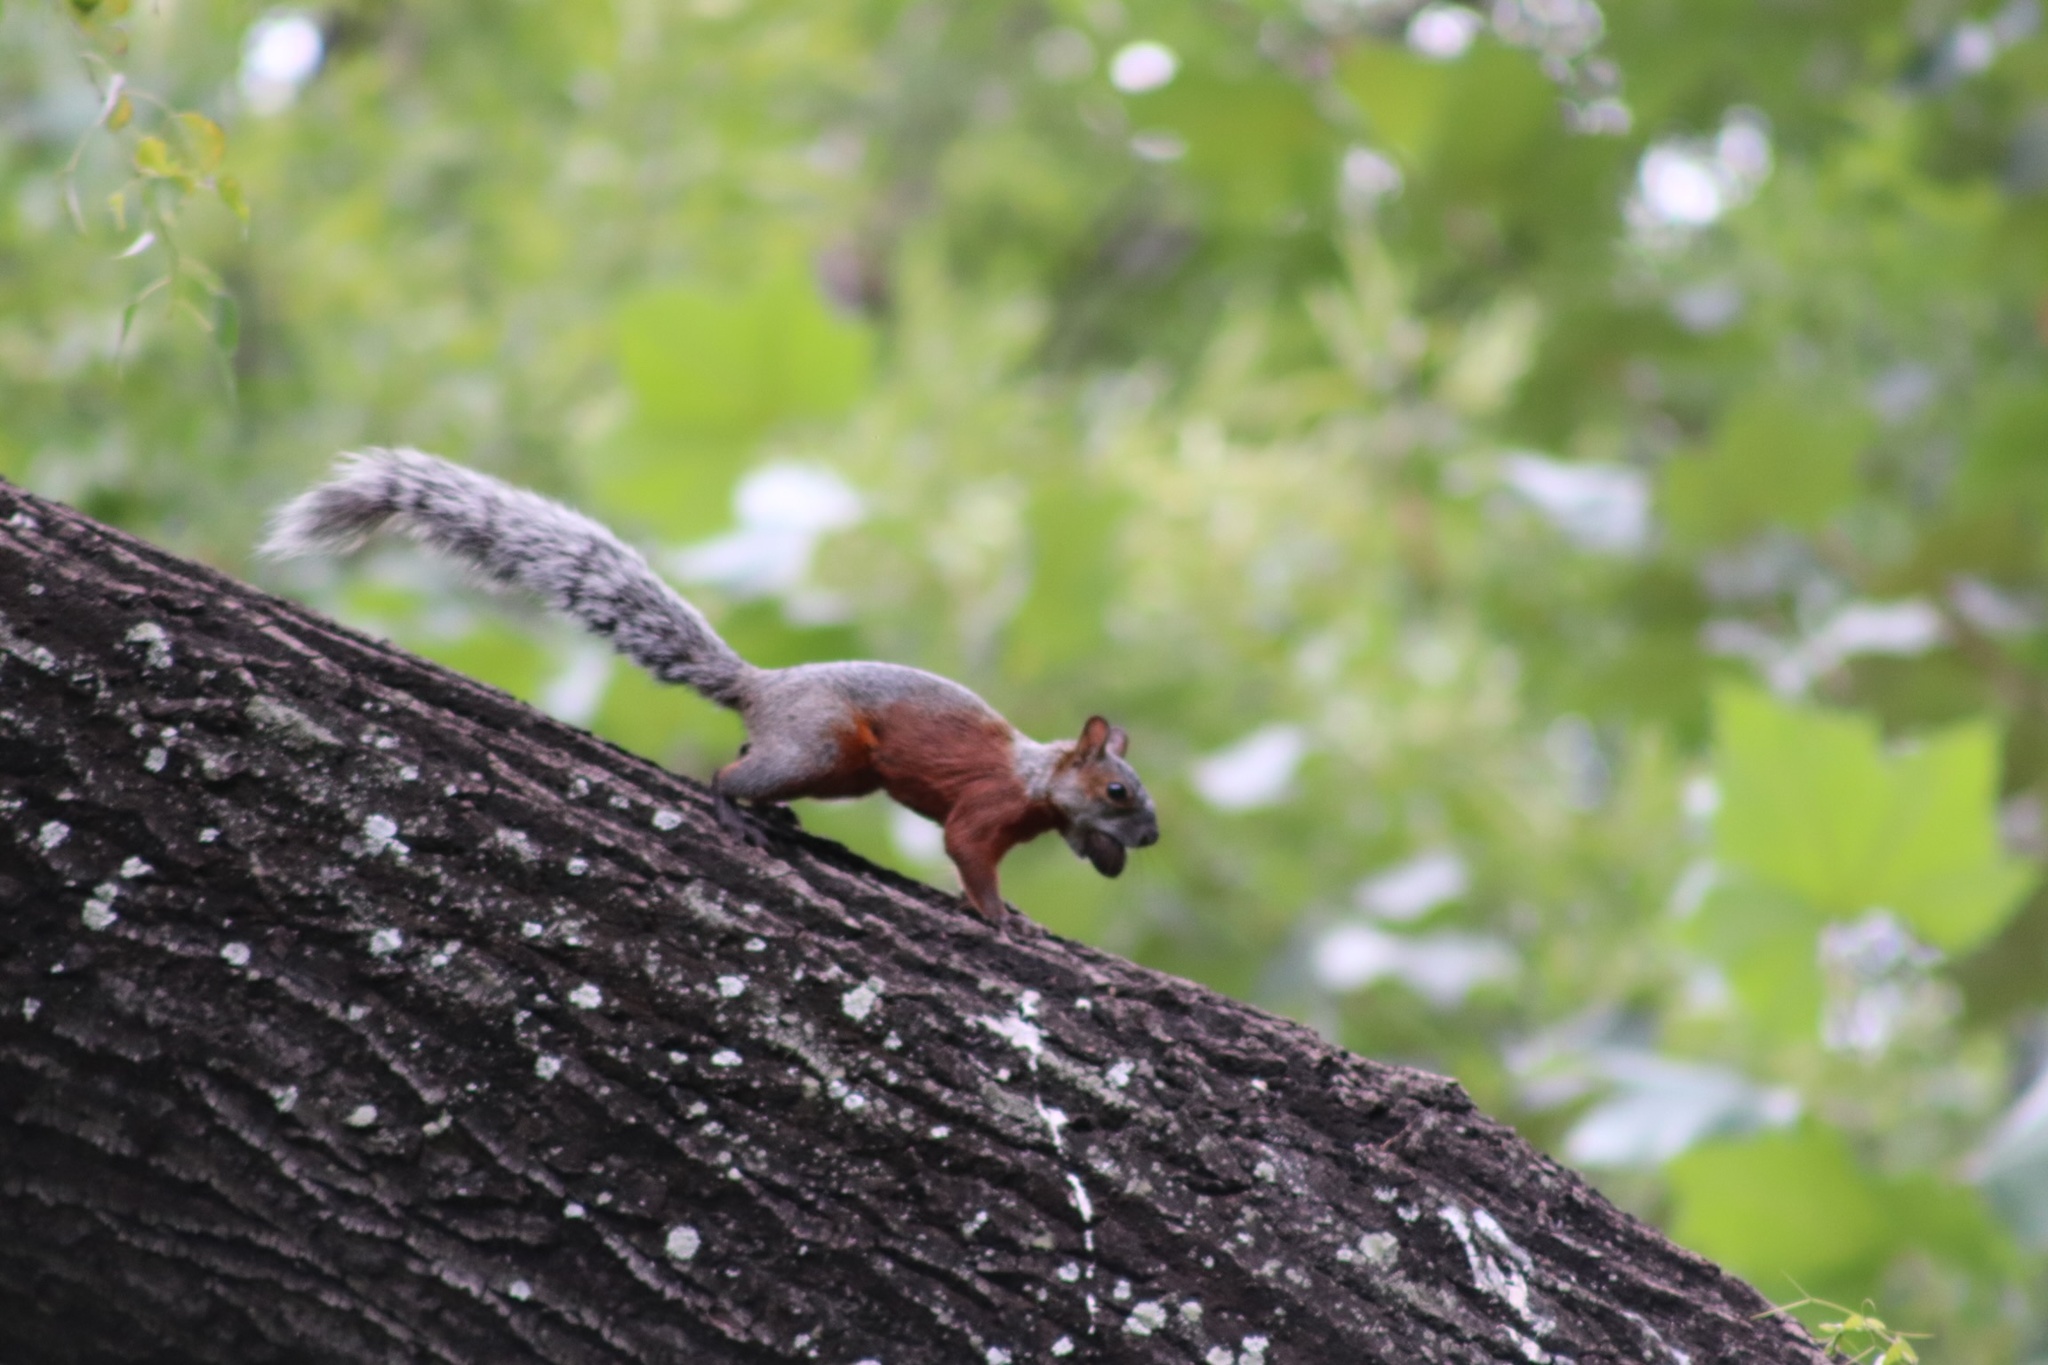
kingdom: Animalia
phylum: Chordata
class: Mammalia
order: Rodentia
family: Sciuridae
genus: Sciurus
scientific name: Sciurus aureogaster
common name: Red-bellied squirrel
